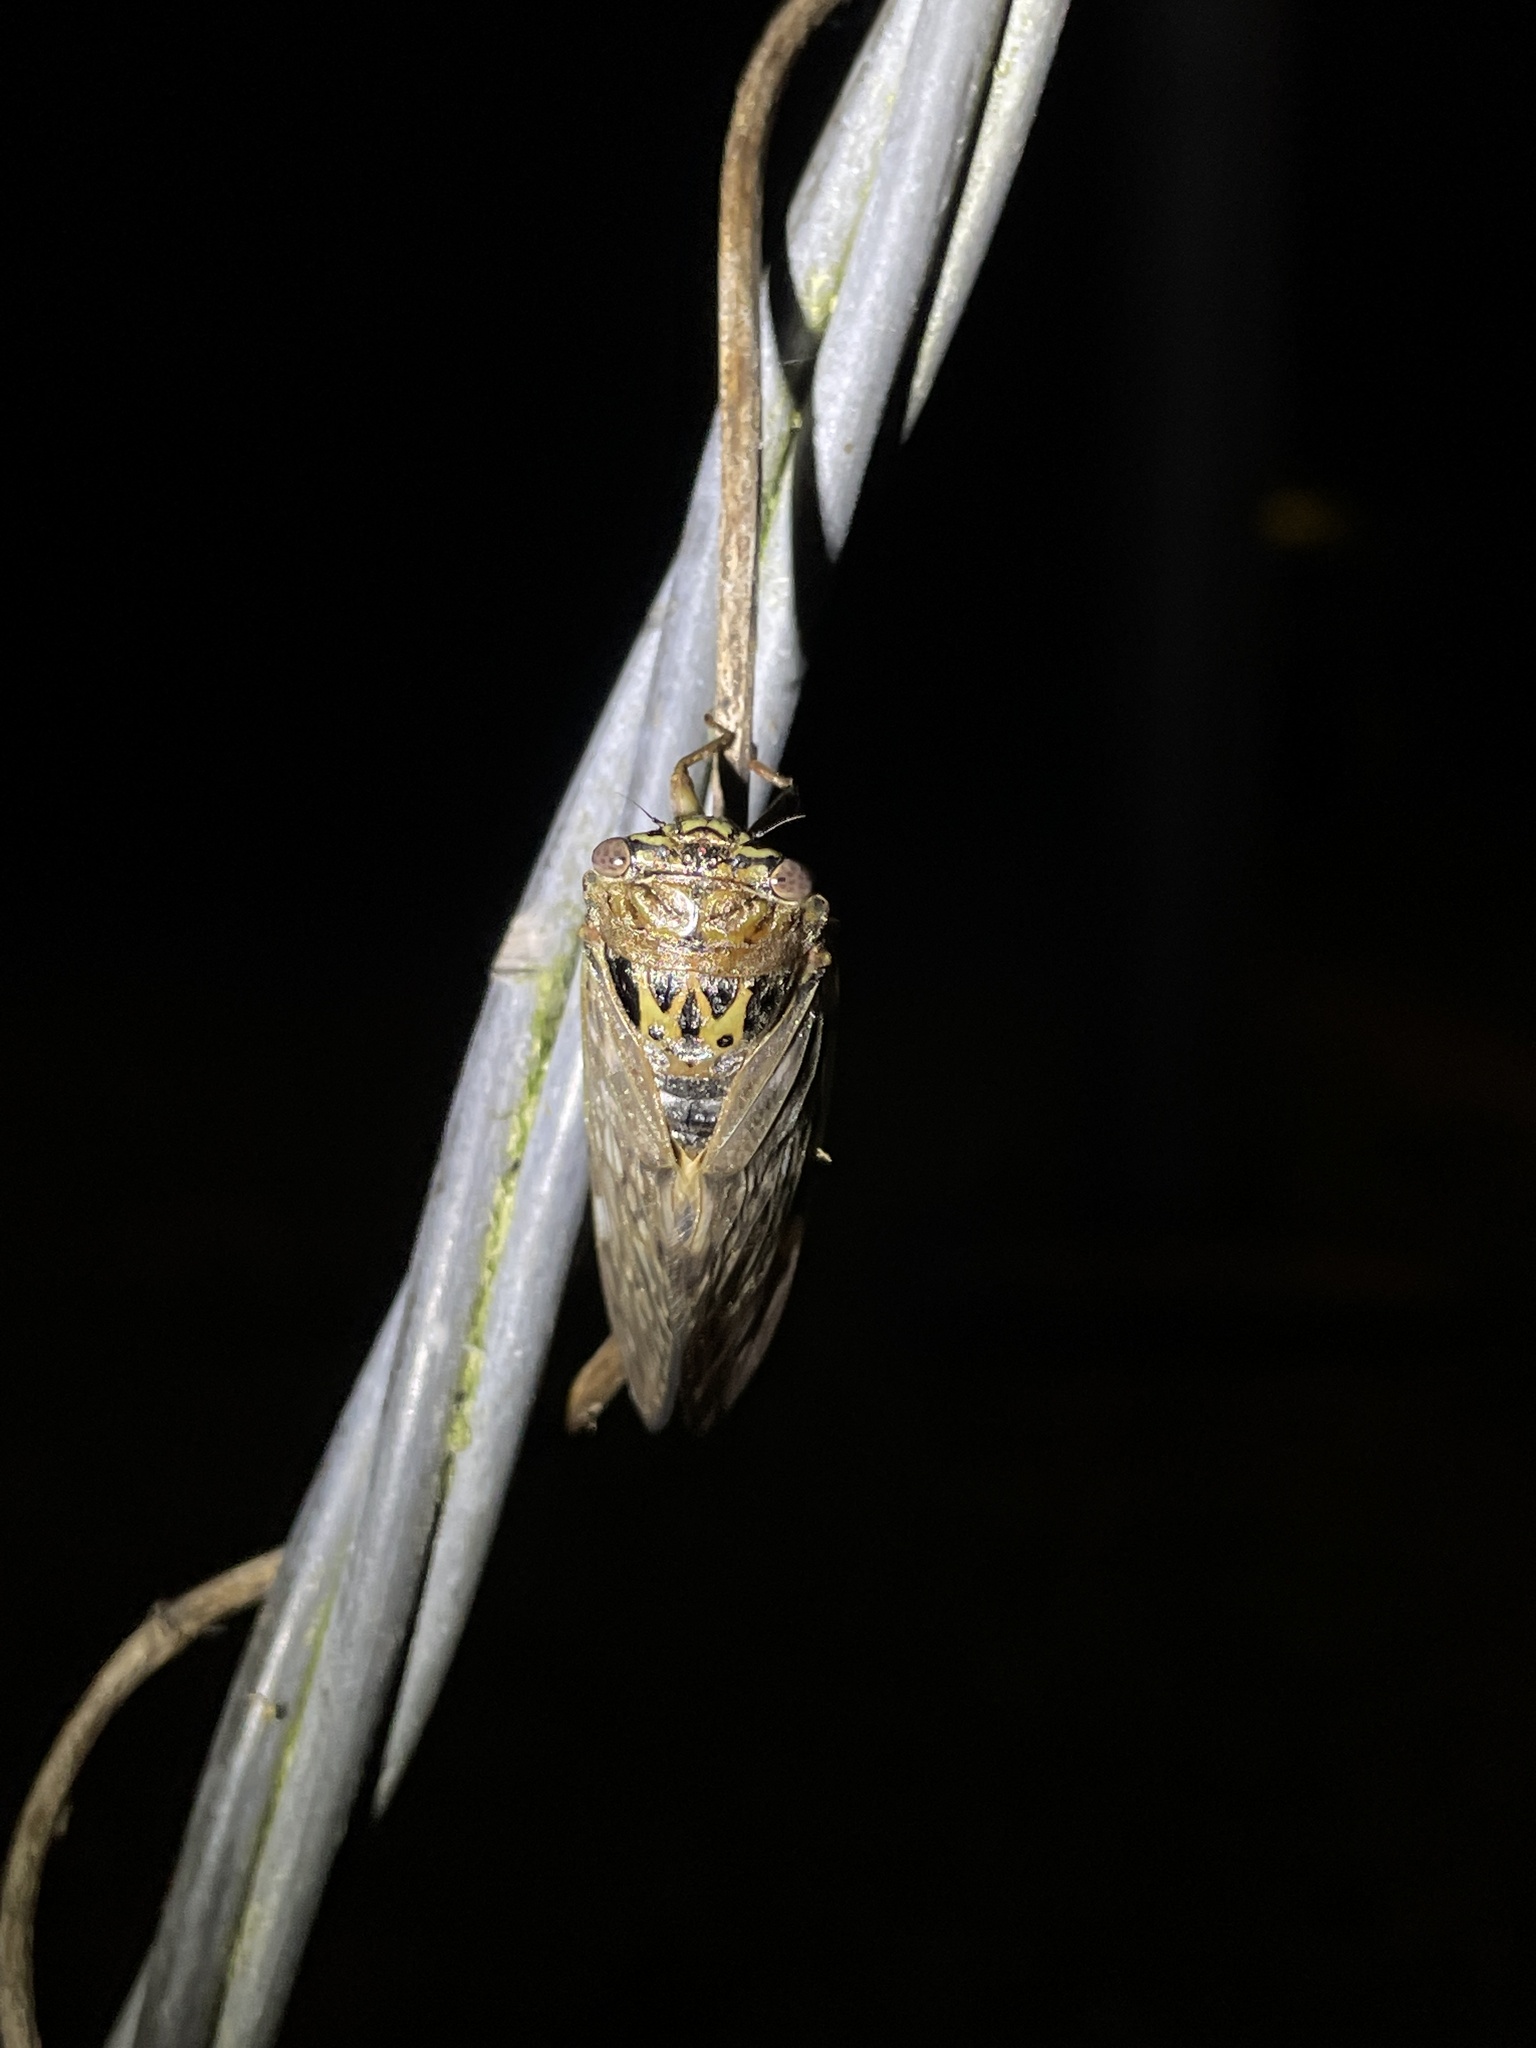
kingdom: Animalia
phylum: Arthropoda
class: Insecta
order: Hemiptera
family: Cicadidae
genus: Platypleura
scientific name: Platypleura hilpa
